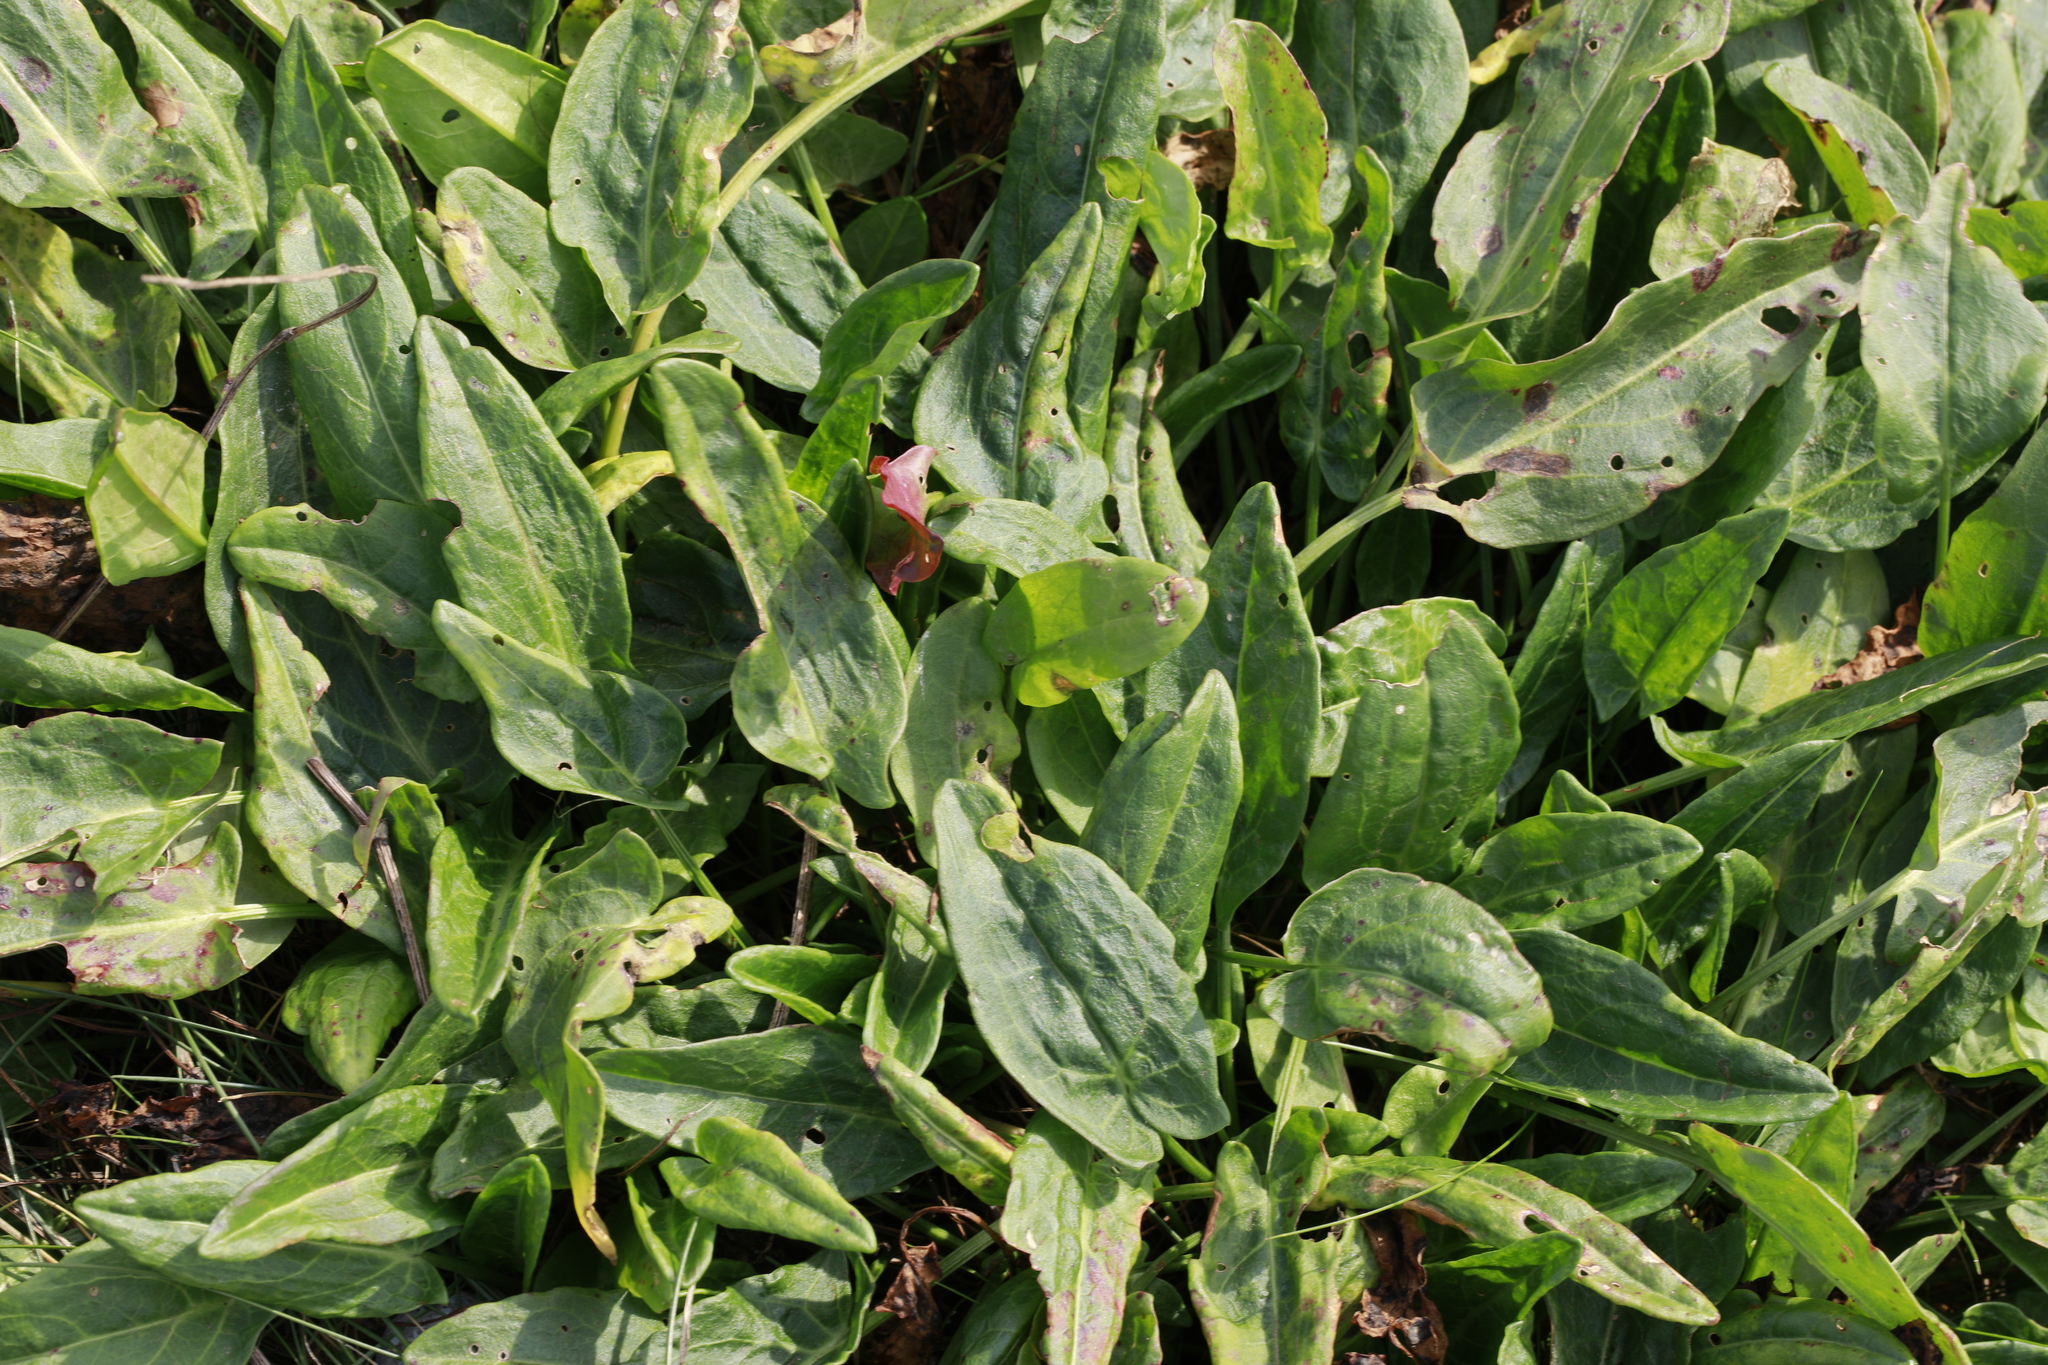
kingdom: Plantae
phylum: Tracheophyta
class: Magnoliopsida
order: Caryophyllales
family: Polygonaceae
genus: Rumex
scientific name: Rumex acetosa
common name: Garden sorrel
